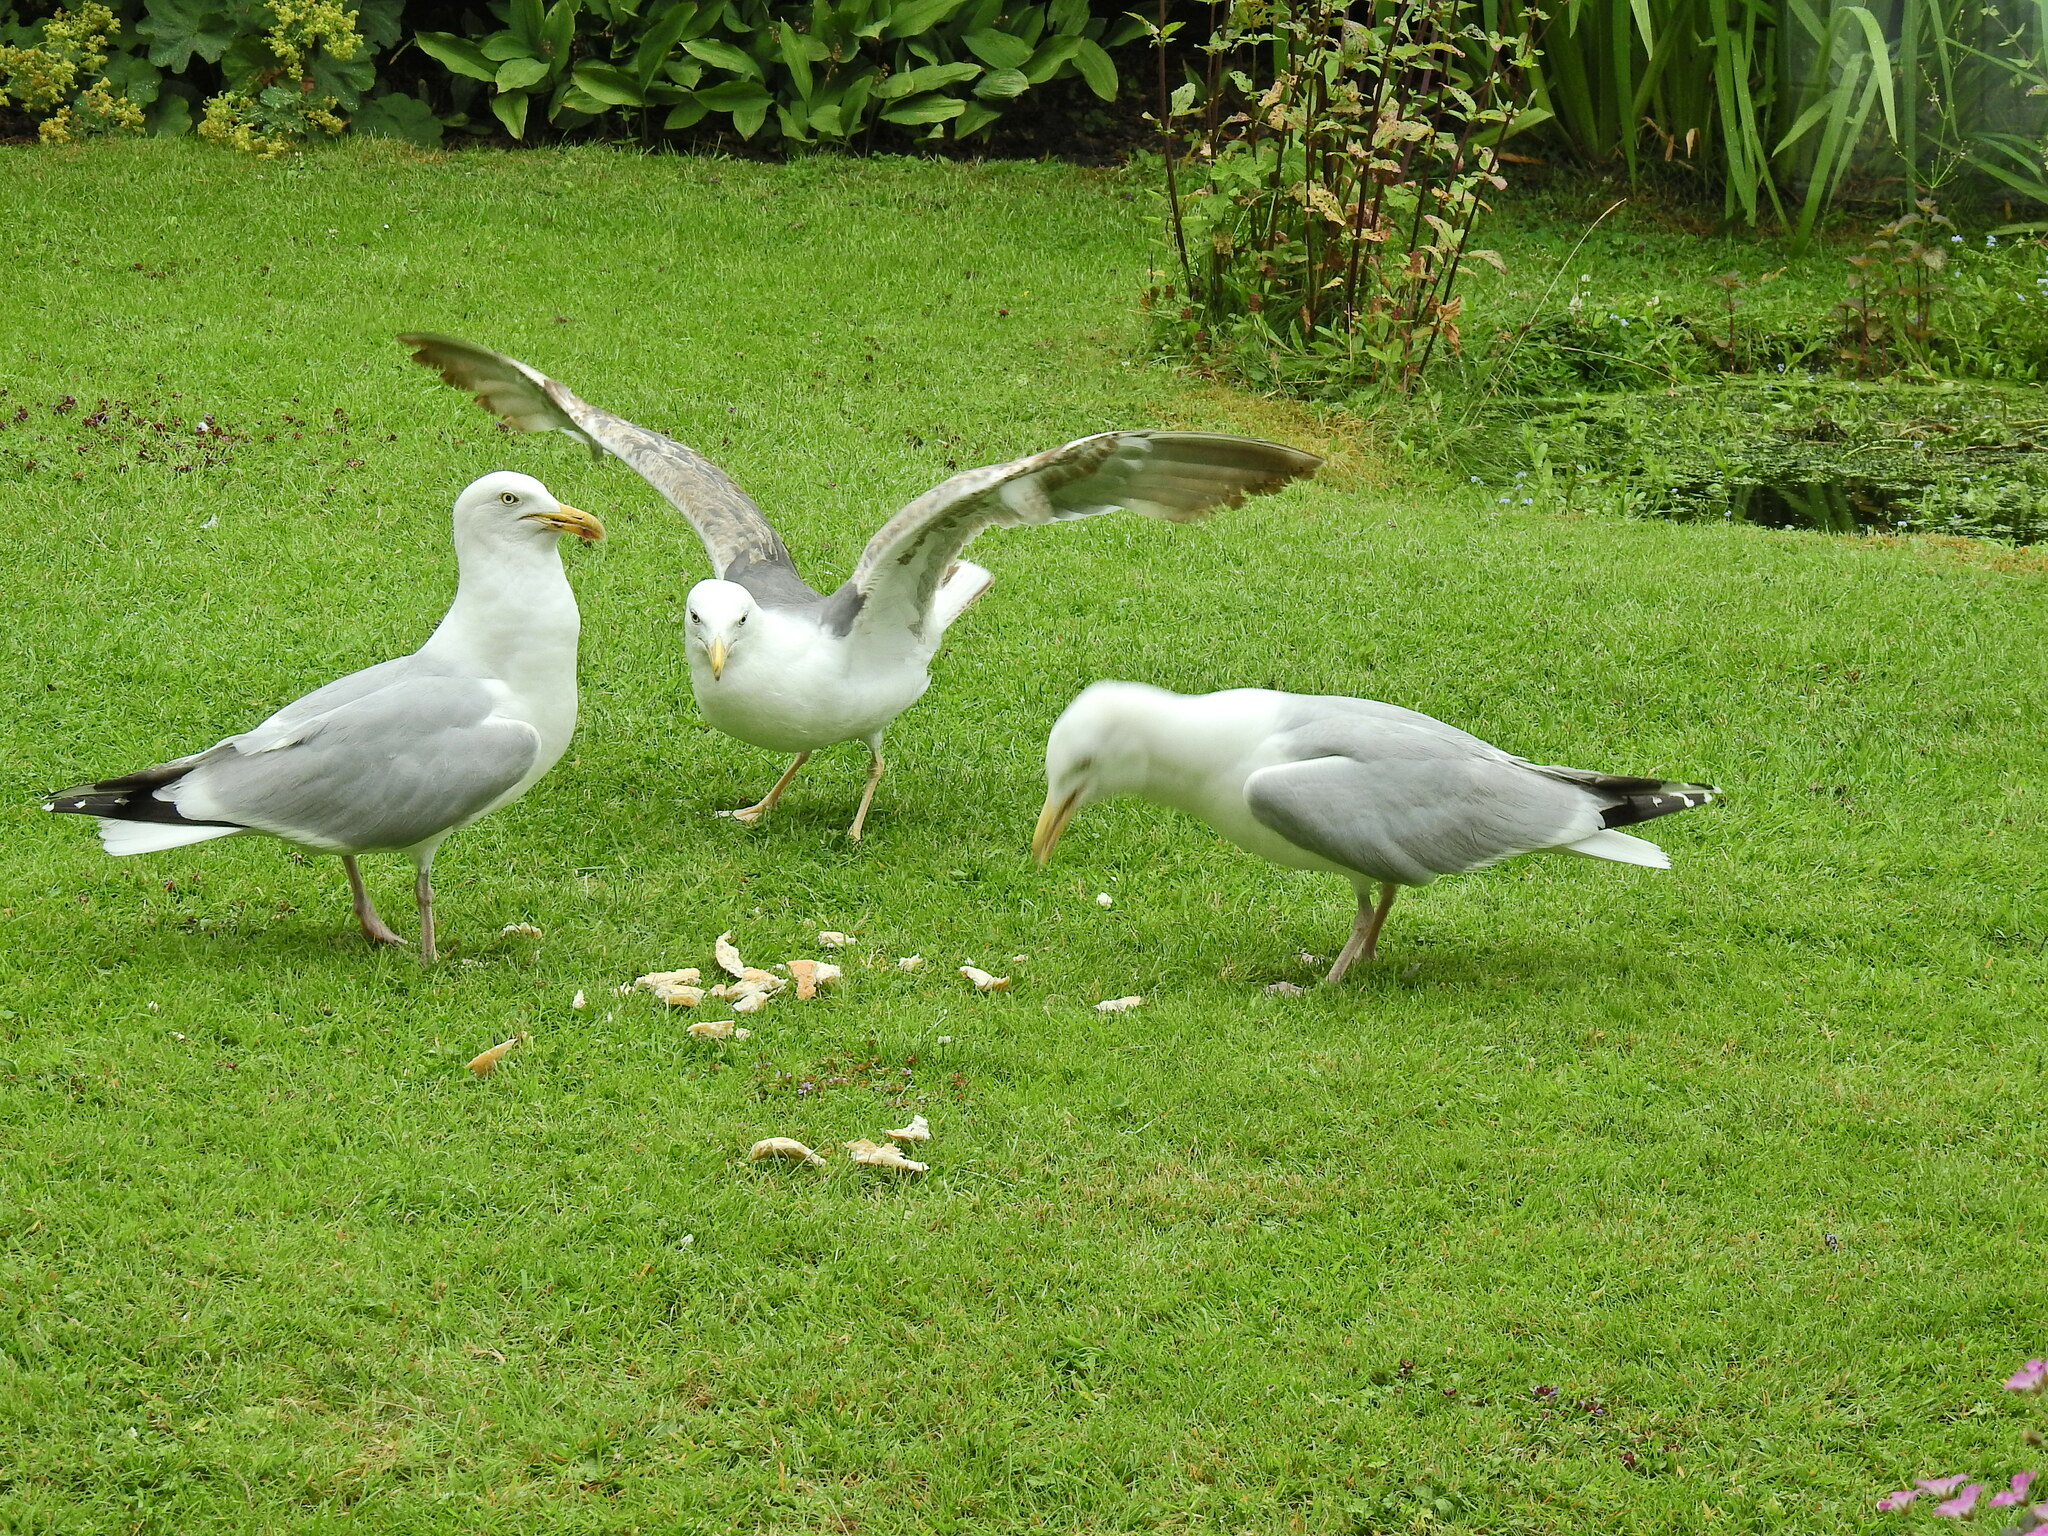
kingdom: Animalia
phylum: Chordata
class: Aves
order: Charadriiformes
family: Laridae
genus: Larus
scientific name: Larus argentatus
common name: Herring gull
